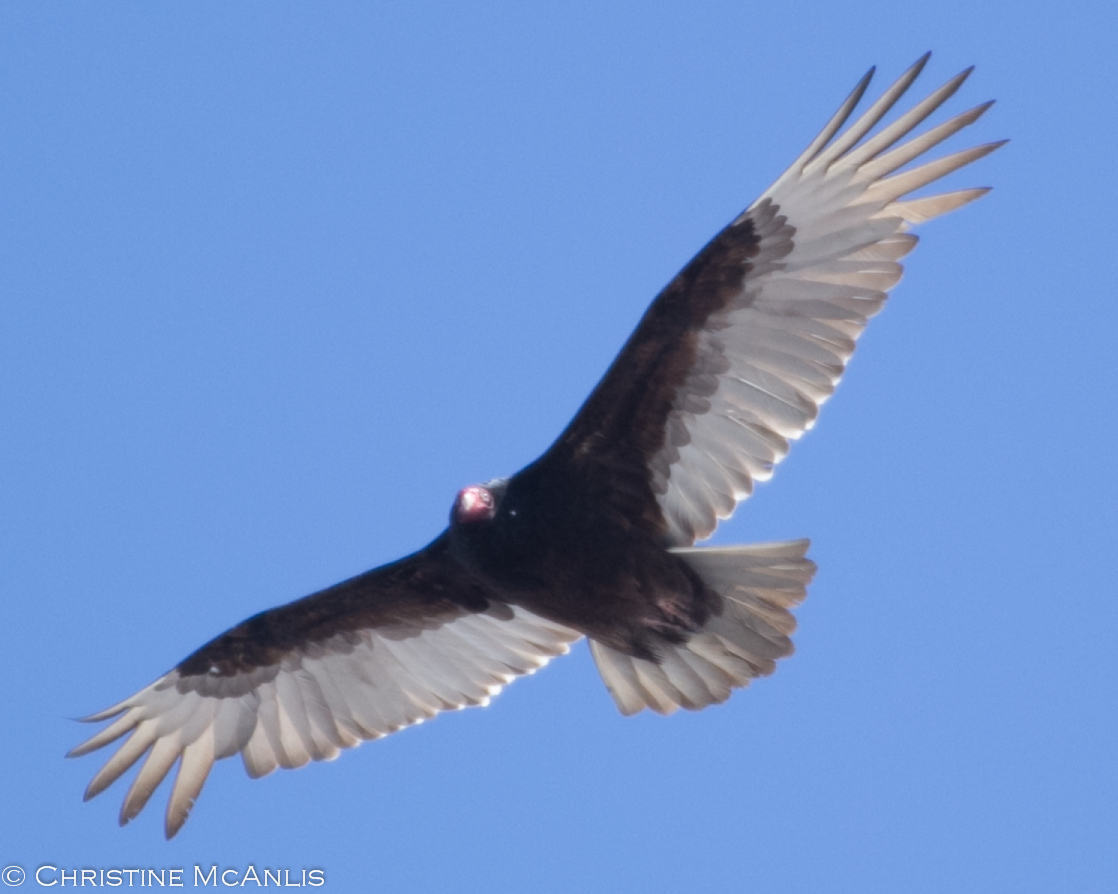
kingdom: Animalia
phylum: Chordata
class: Aves
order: Accipitriformes
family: Cathartidae
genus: Cathartes
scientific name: Cathartes aura
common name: Turkey vulture
